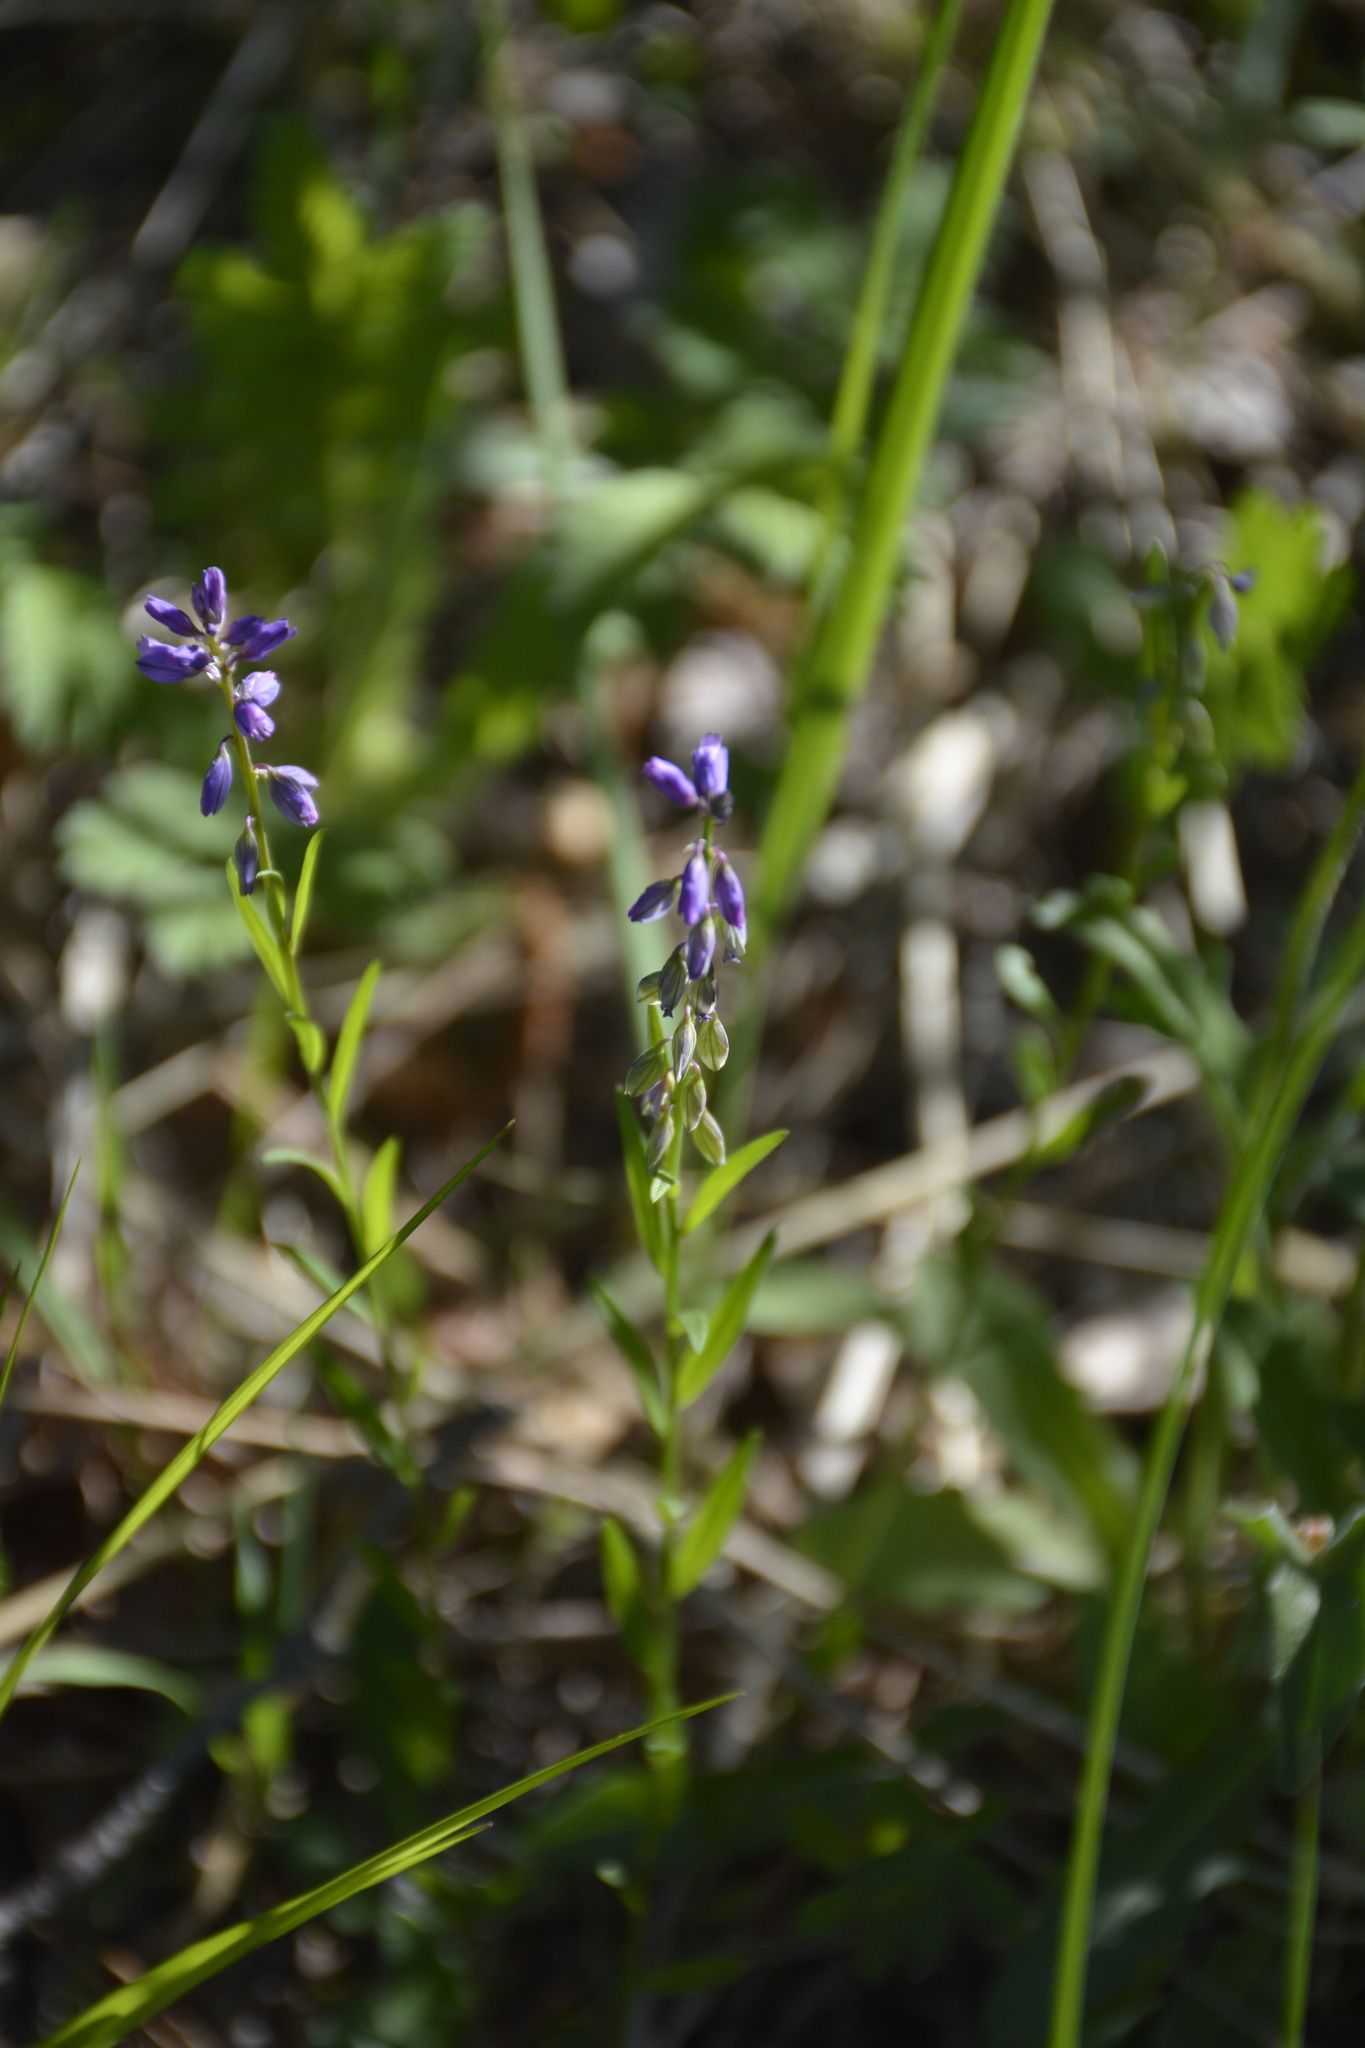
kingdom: Plantae
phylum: Tracheophyta
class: Magnoliopsida
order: Fabales
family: Polygalaceae
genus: Polygala
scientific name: Polygala comosa
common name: Tufted milkwort
